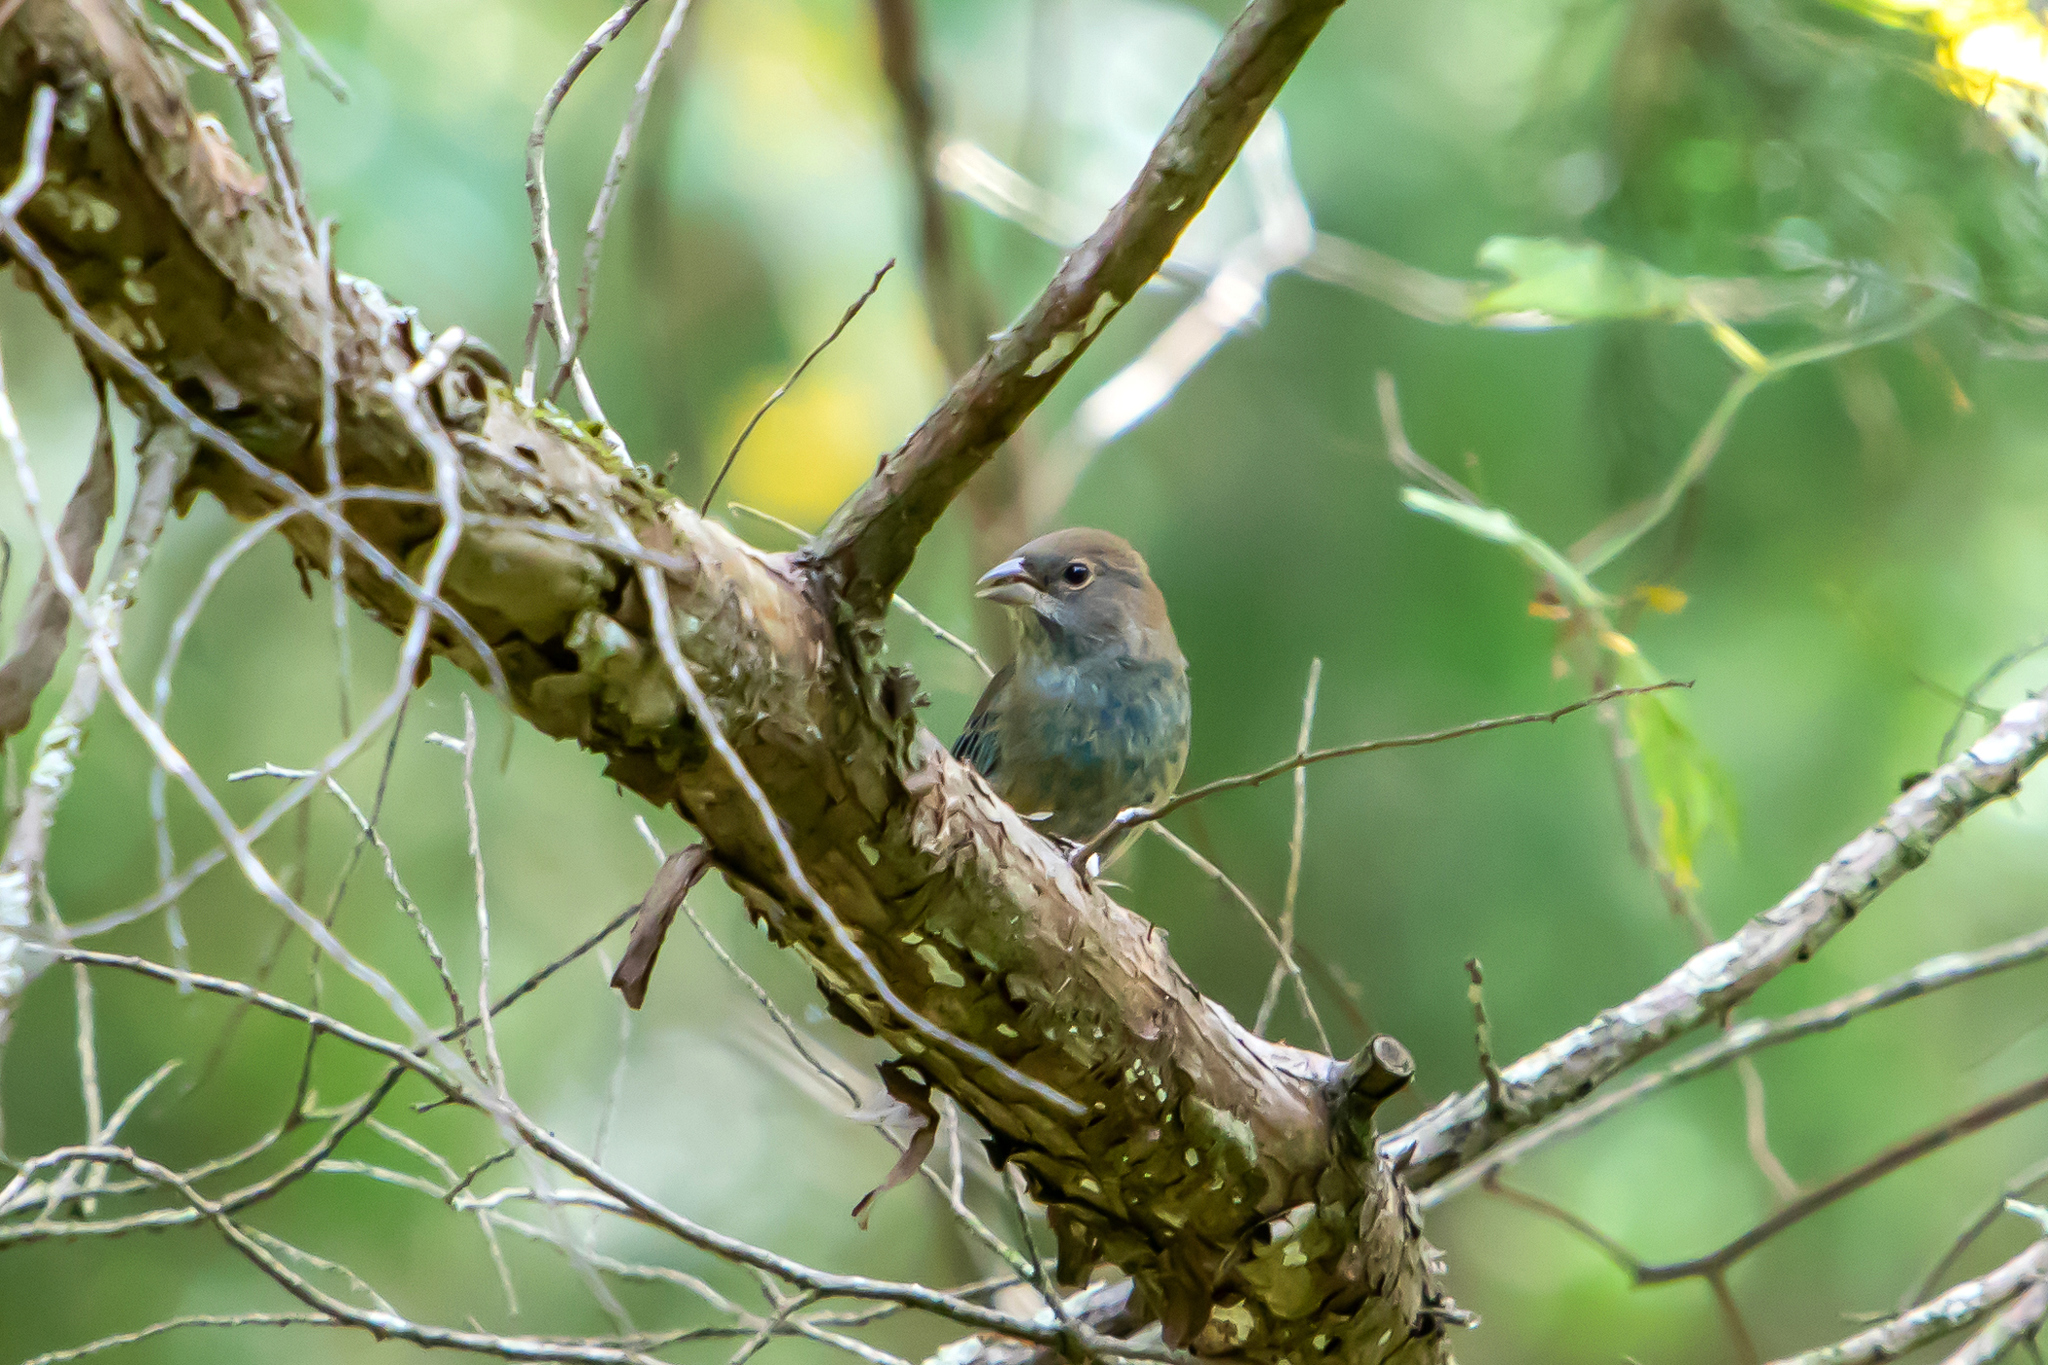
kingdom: Animalia
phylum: Chordata
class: Aves
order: Passeriformes
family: Cardinalidae
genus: Passerina
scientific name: Passerina cyanea
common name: Indigo bunting
